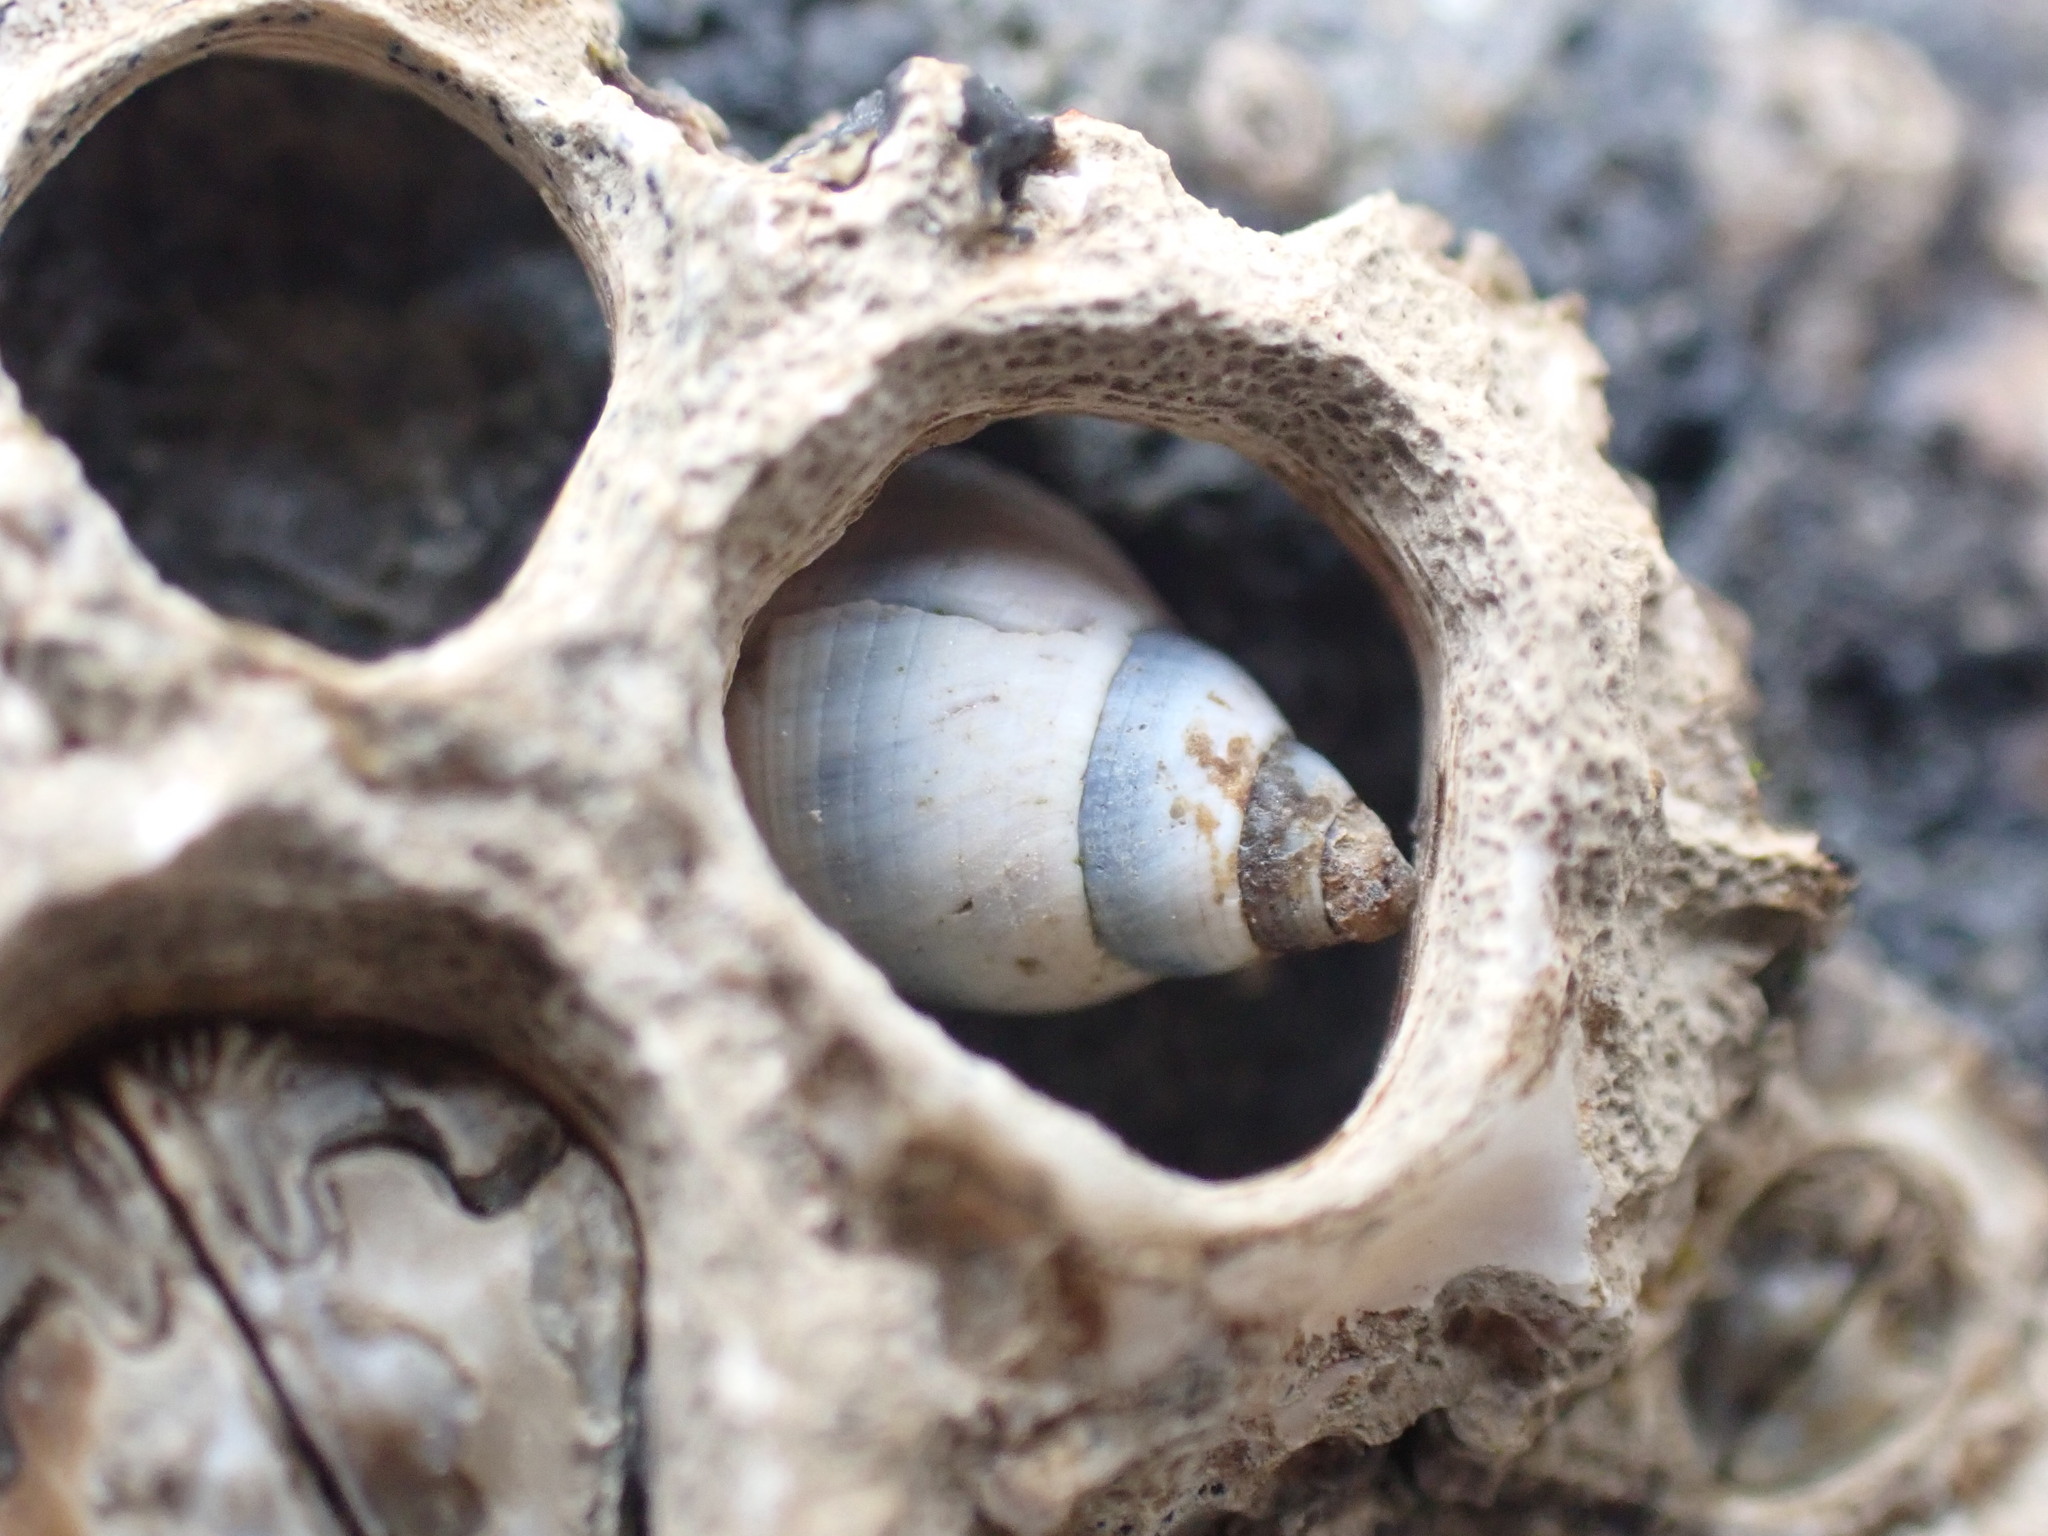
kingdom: Animalia
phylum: Mollusca
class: Gastropoda
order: Littorinimorpha
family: Littorinidae
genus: Austrolittorina
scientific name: Austrolittorina antipodum
